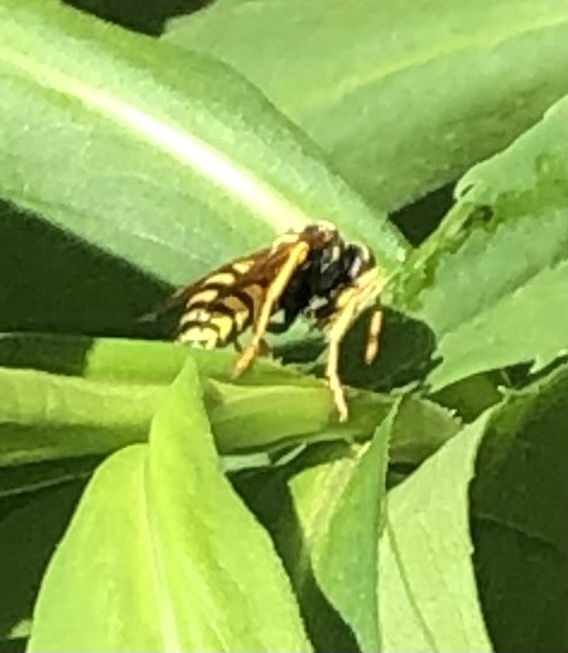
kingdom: Animalia
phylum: Arthropoda
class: Insecta
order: Hymenoptera
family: Eumenidae
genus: Polistes
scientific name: Polistes dominula
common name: Paper wasp
